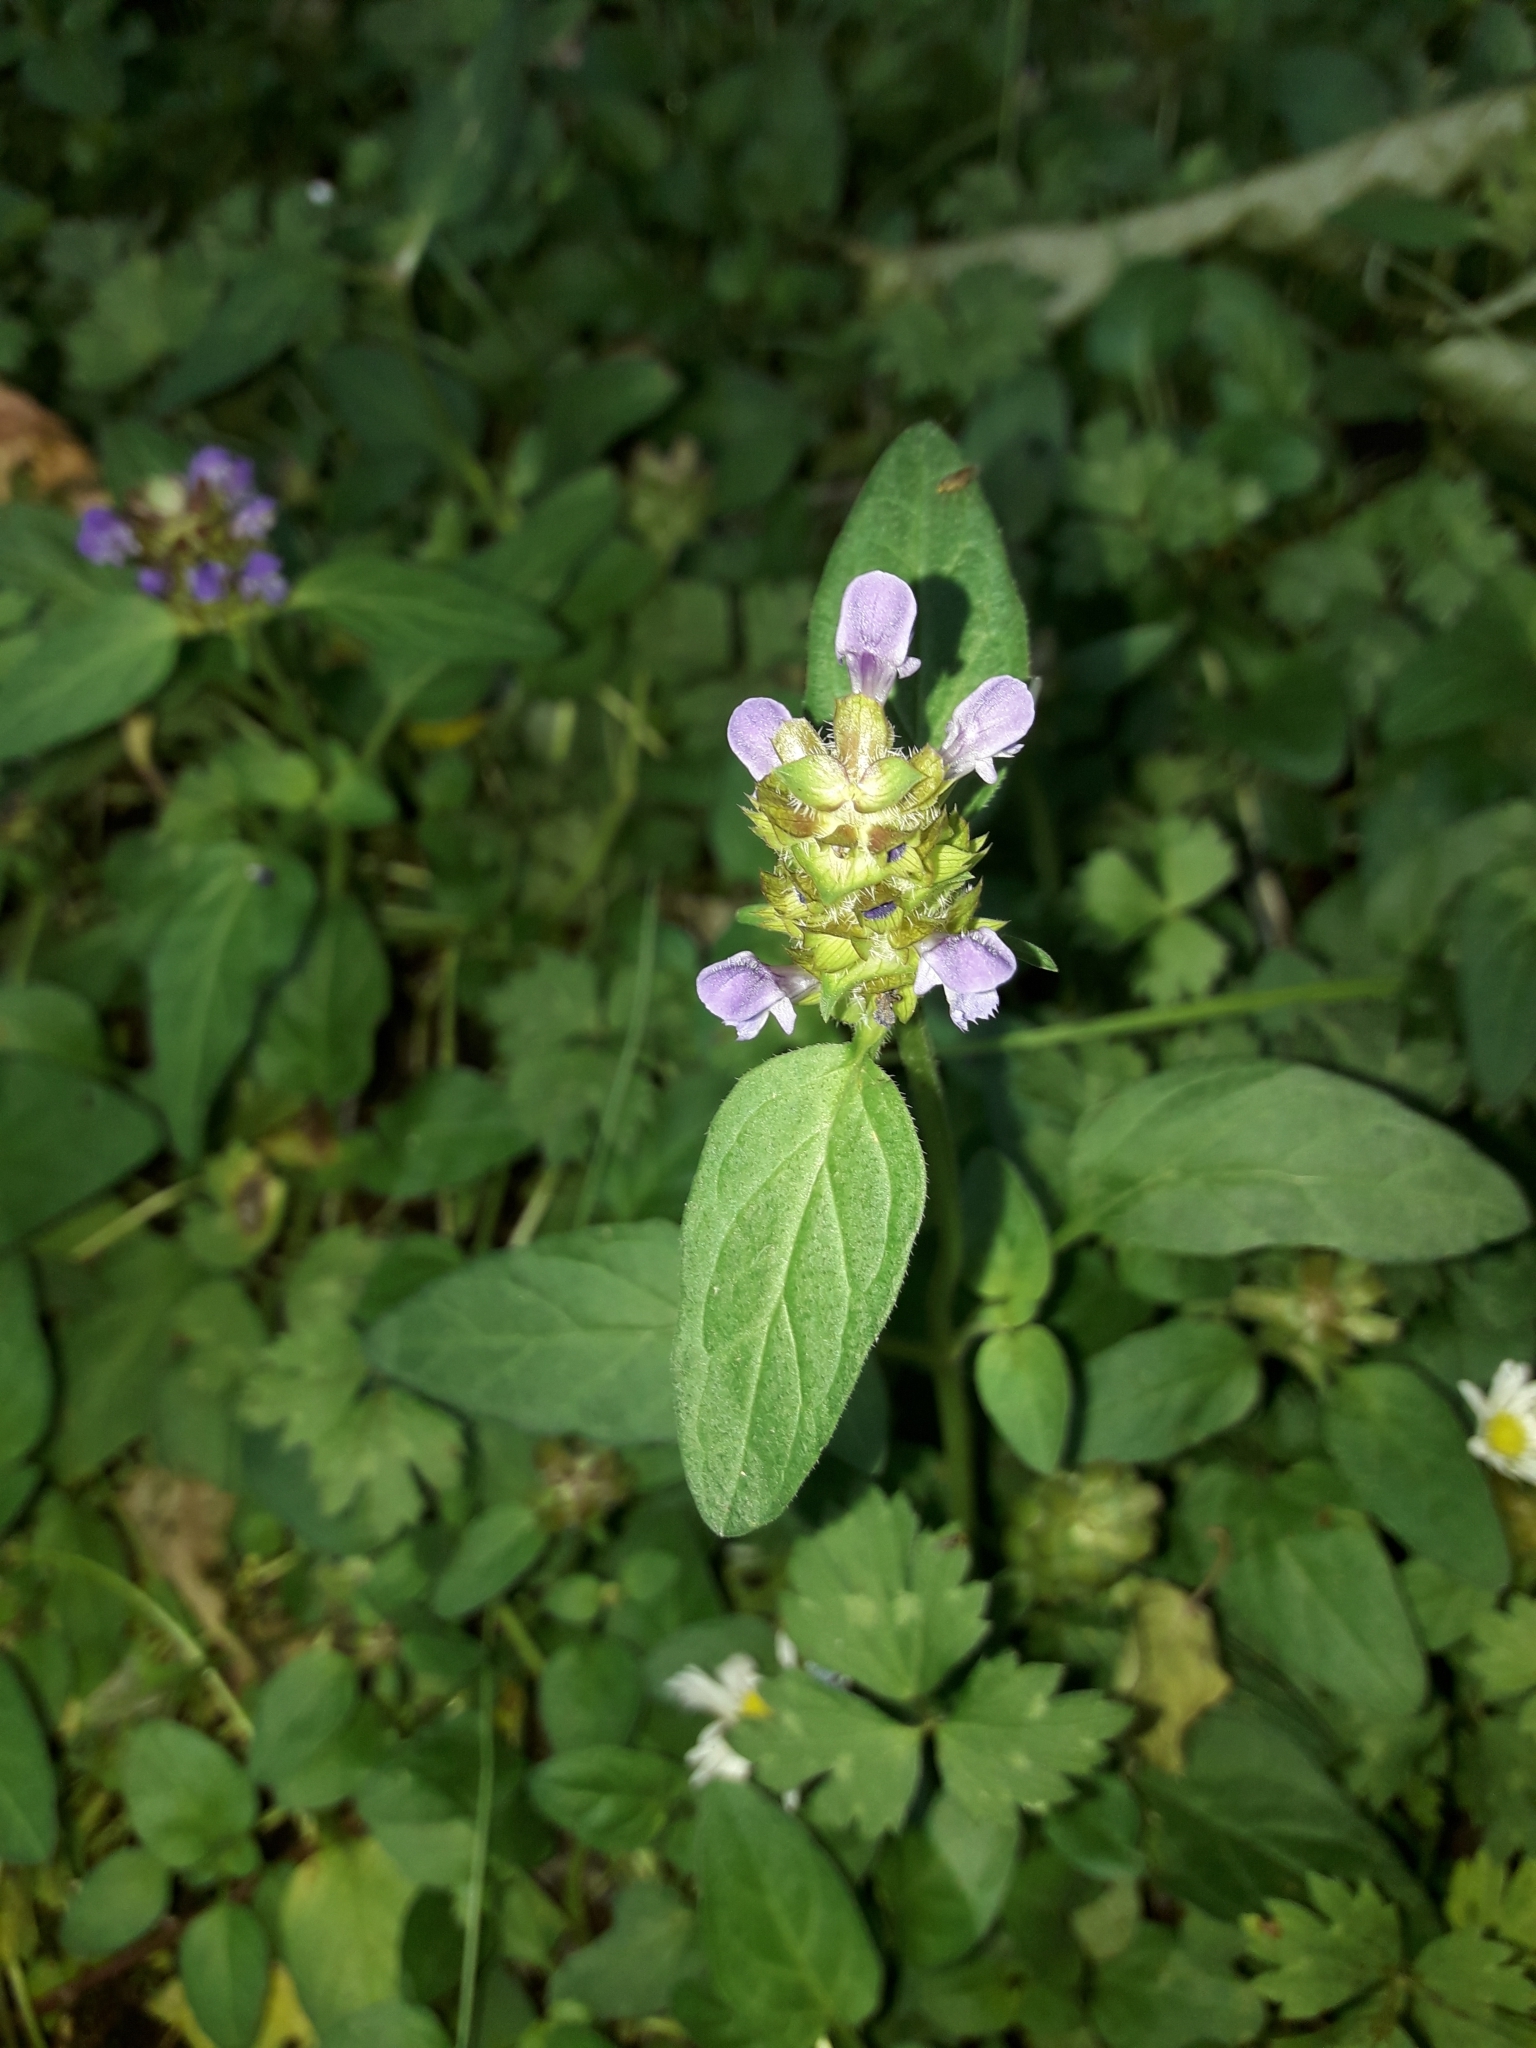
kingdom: Plantae
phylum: Tracheophyta
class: Magnoliopsida
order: Lamiales
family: Lamiaceae
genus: Prunella
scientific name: Prunella vulgaris
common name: Heal-all
